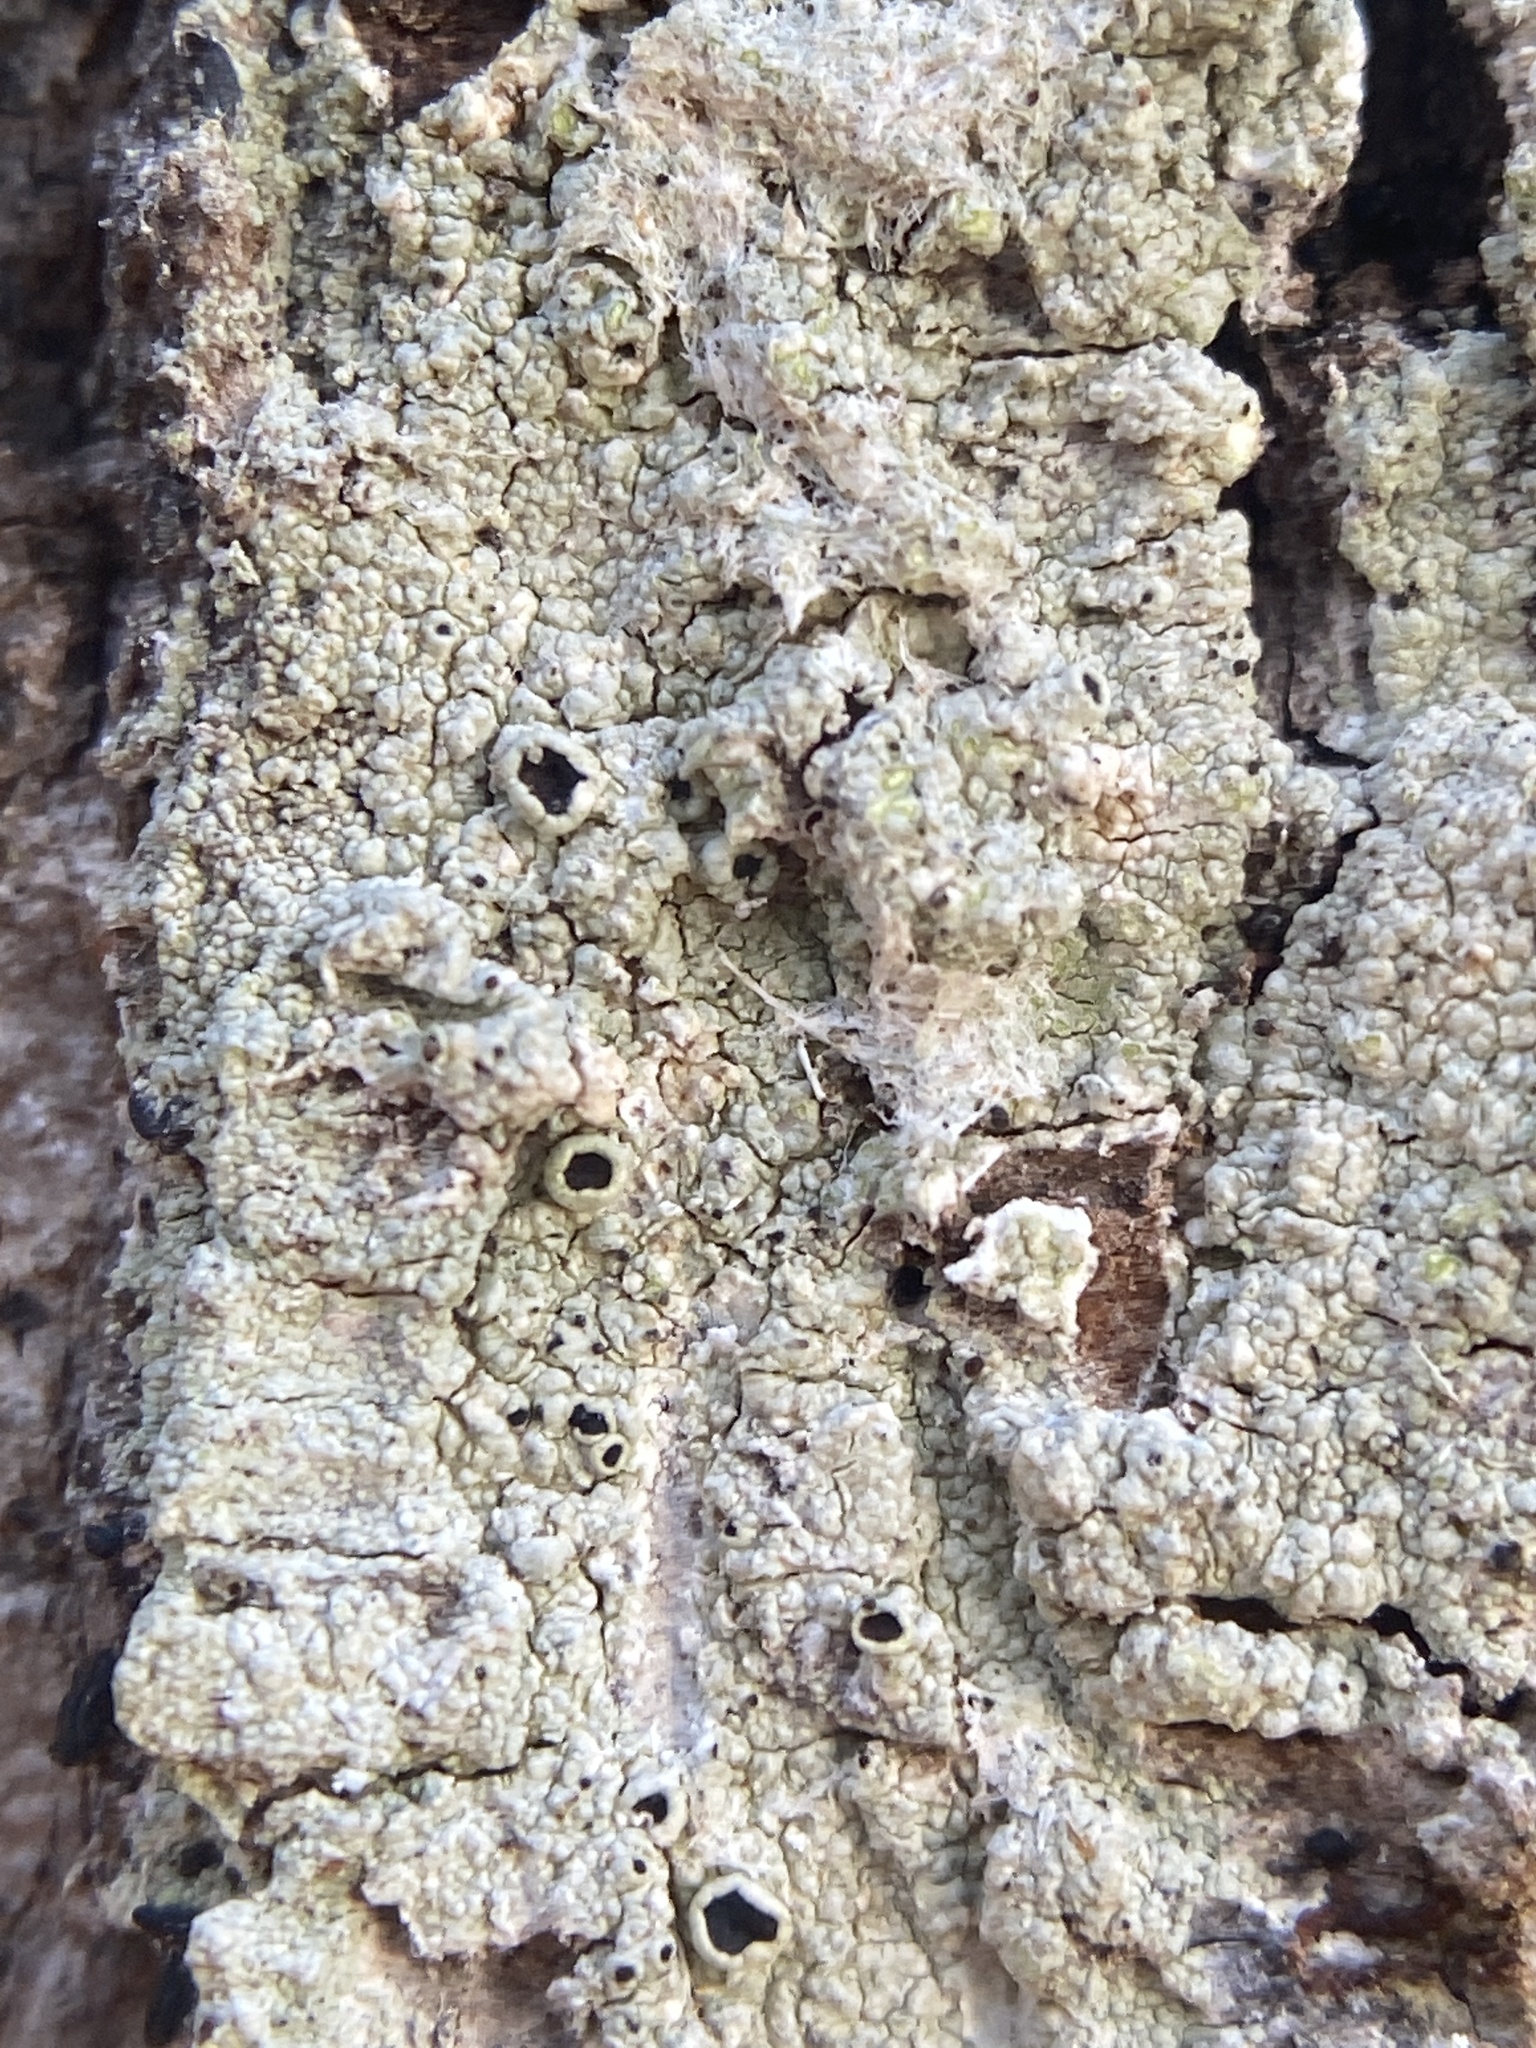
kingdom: Fungi
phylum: Ascomycota
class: Lecanoromycetes
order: Lecanorales
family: Tephromelataceae
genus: Tephromela
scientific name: Tephromela atra
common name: Black shields
